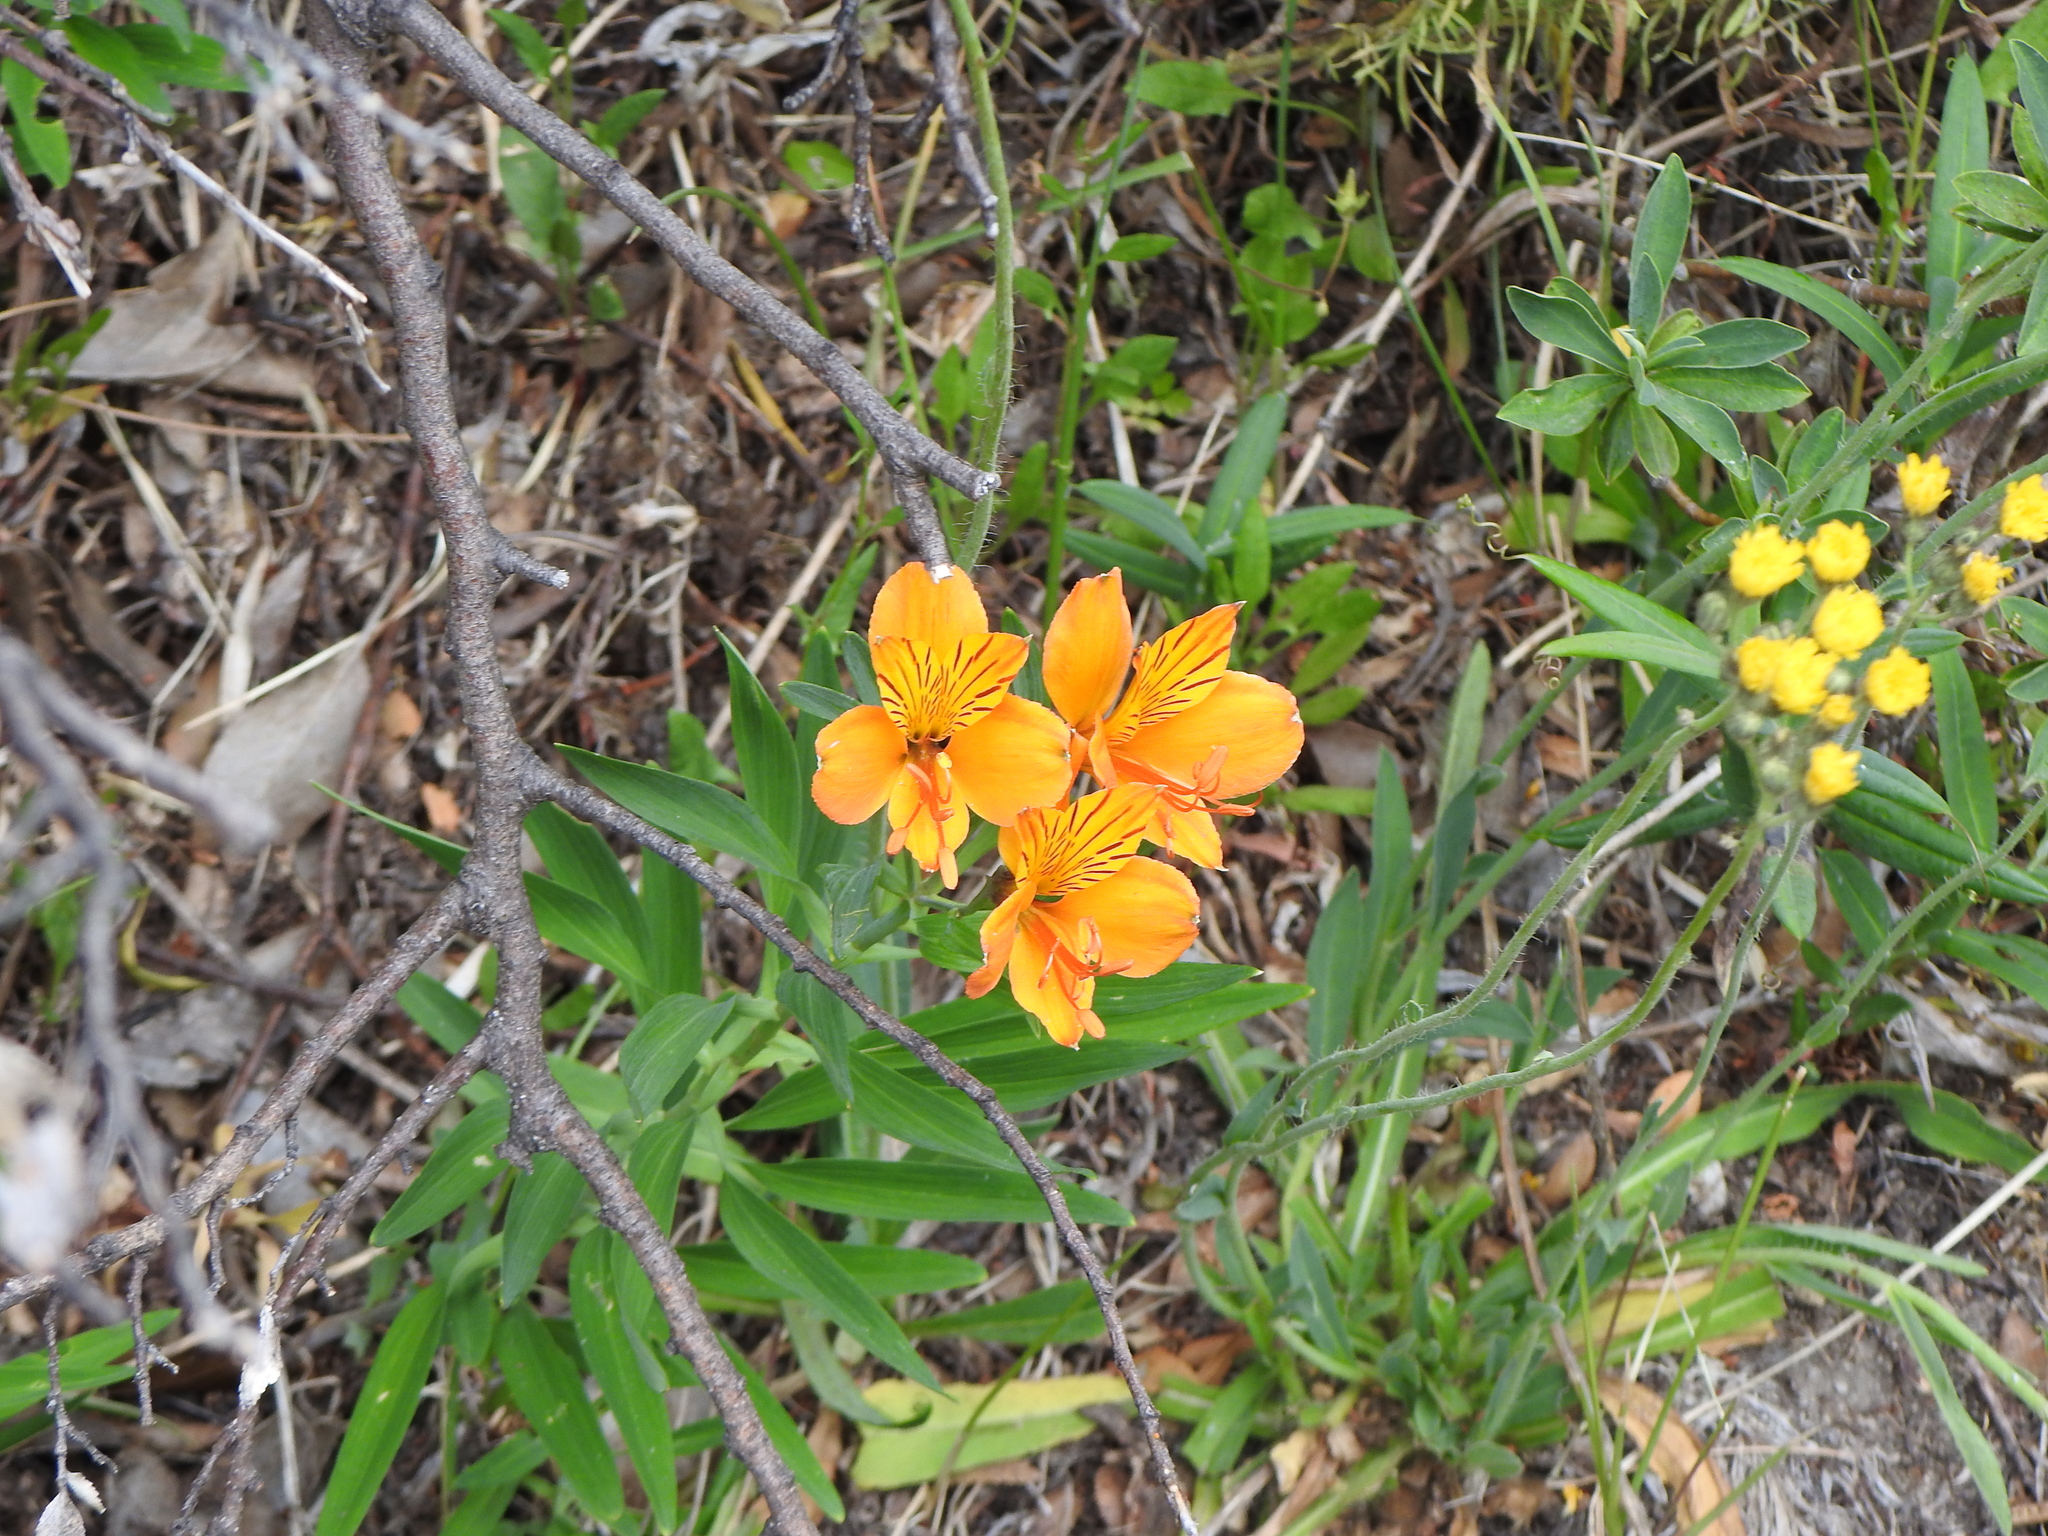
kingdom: Plantae
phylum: Tracheophyta
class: Liliopsida
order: Liliales
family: Alstroemeriaceae
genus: Alstroemeria
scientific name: Alstroemeria aurea
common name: Peruvian lily
